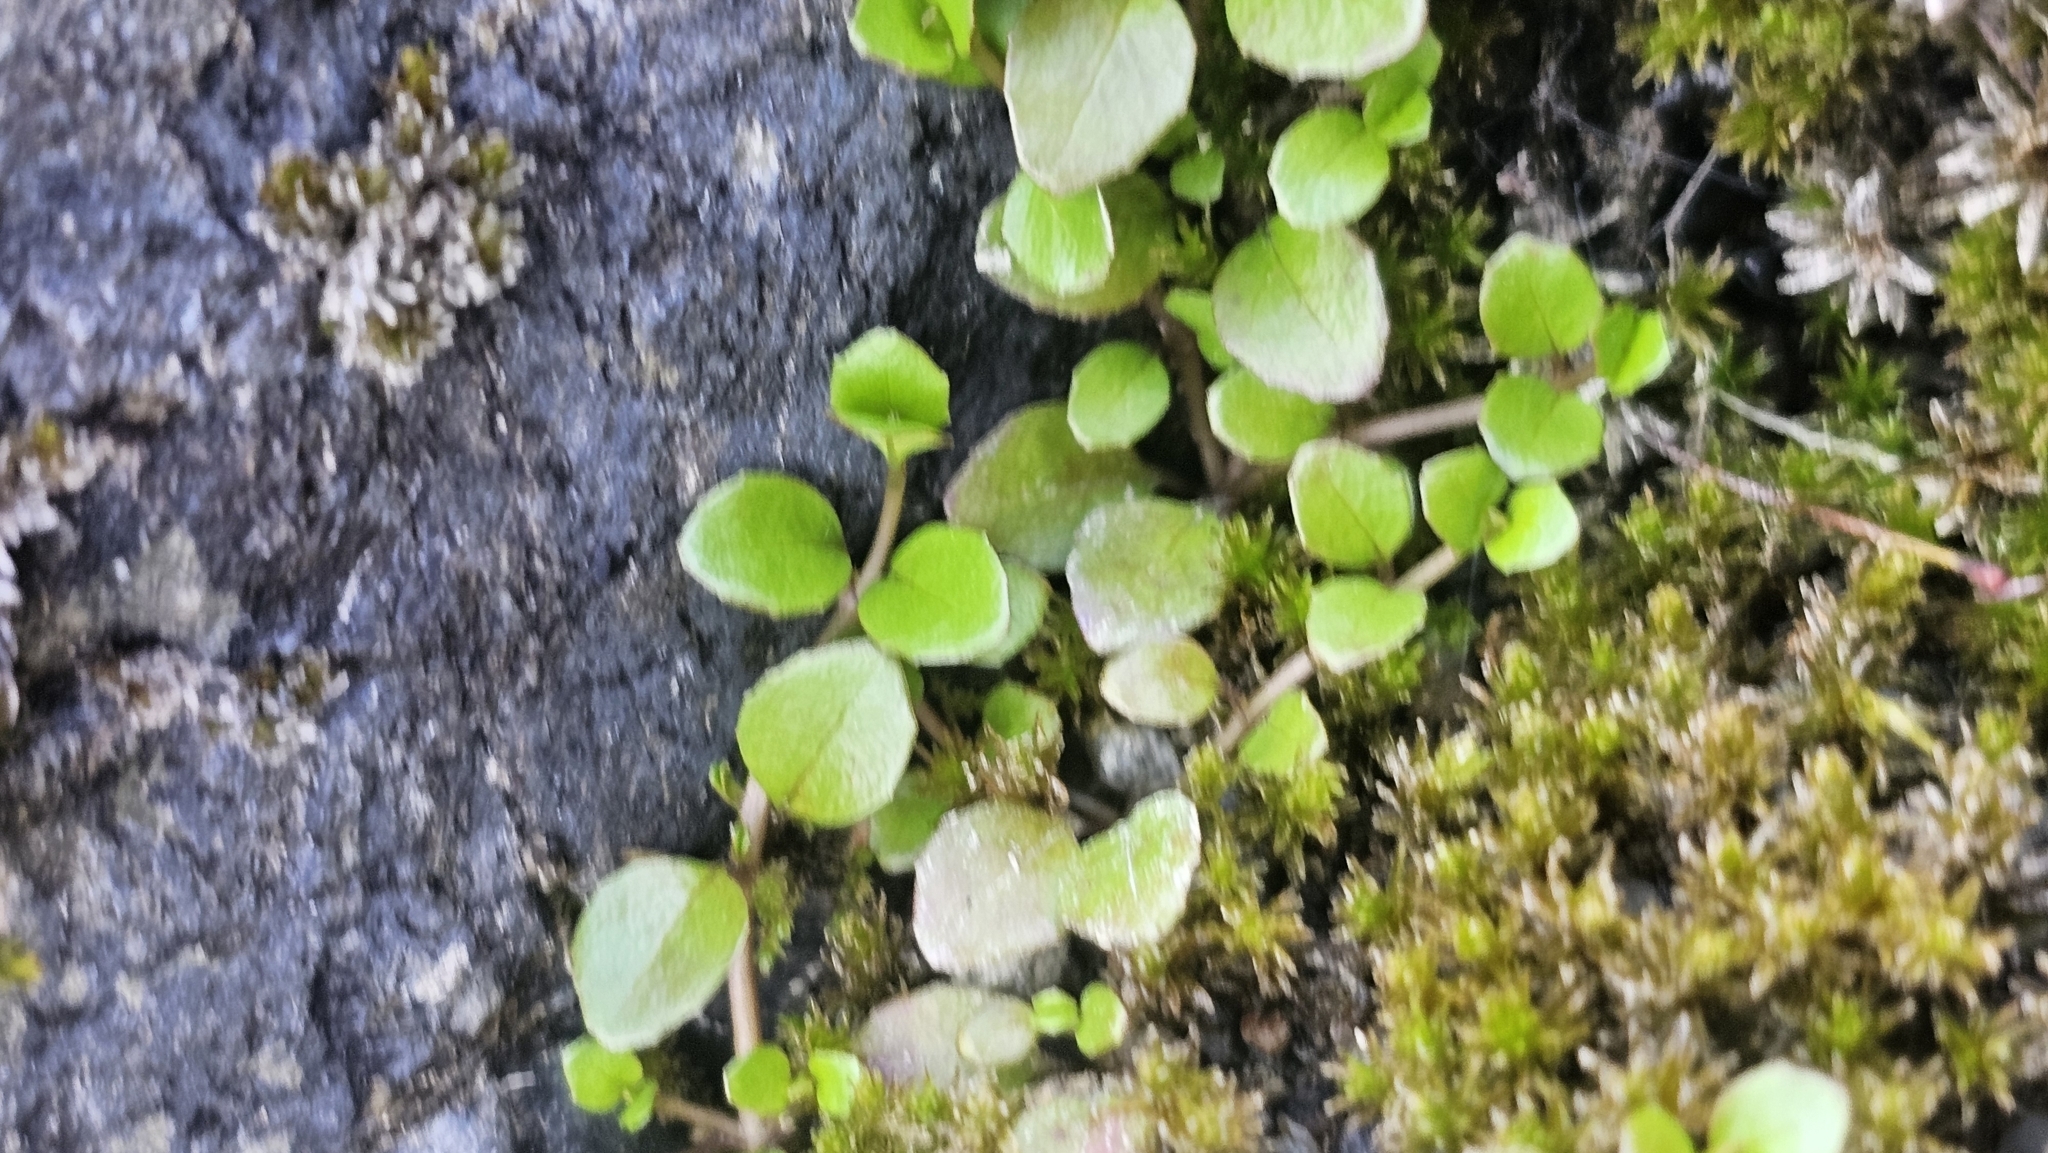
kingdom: Plantae
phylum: Tracheophyta
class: Magnoliopsida
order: Myrtales
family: Onagraceae
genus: Epilobium
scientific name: Epilobium brunnescens
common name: New zealand willowherb
